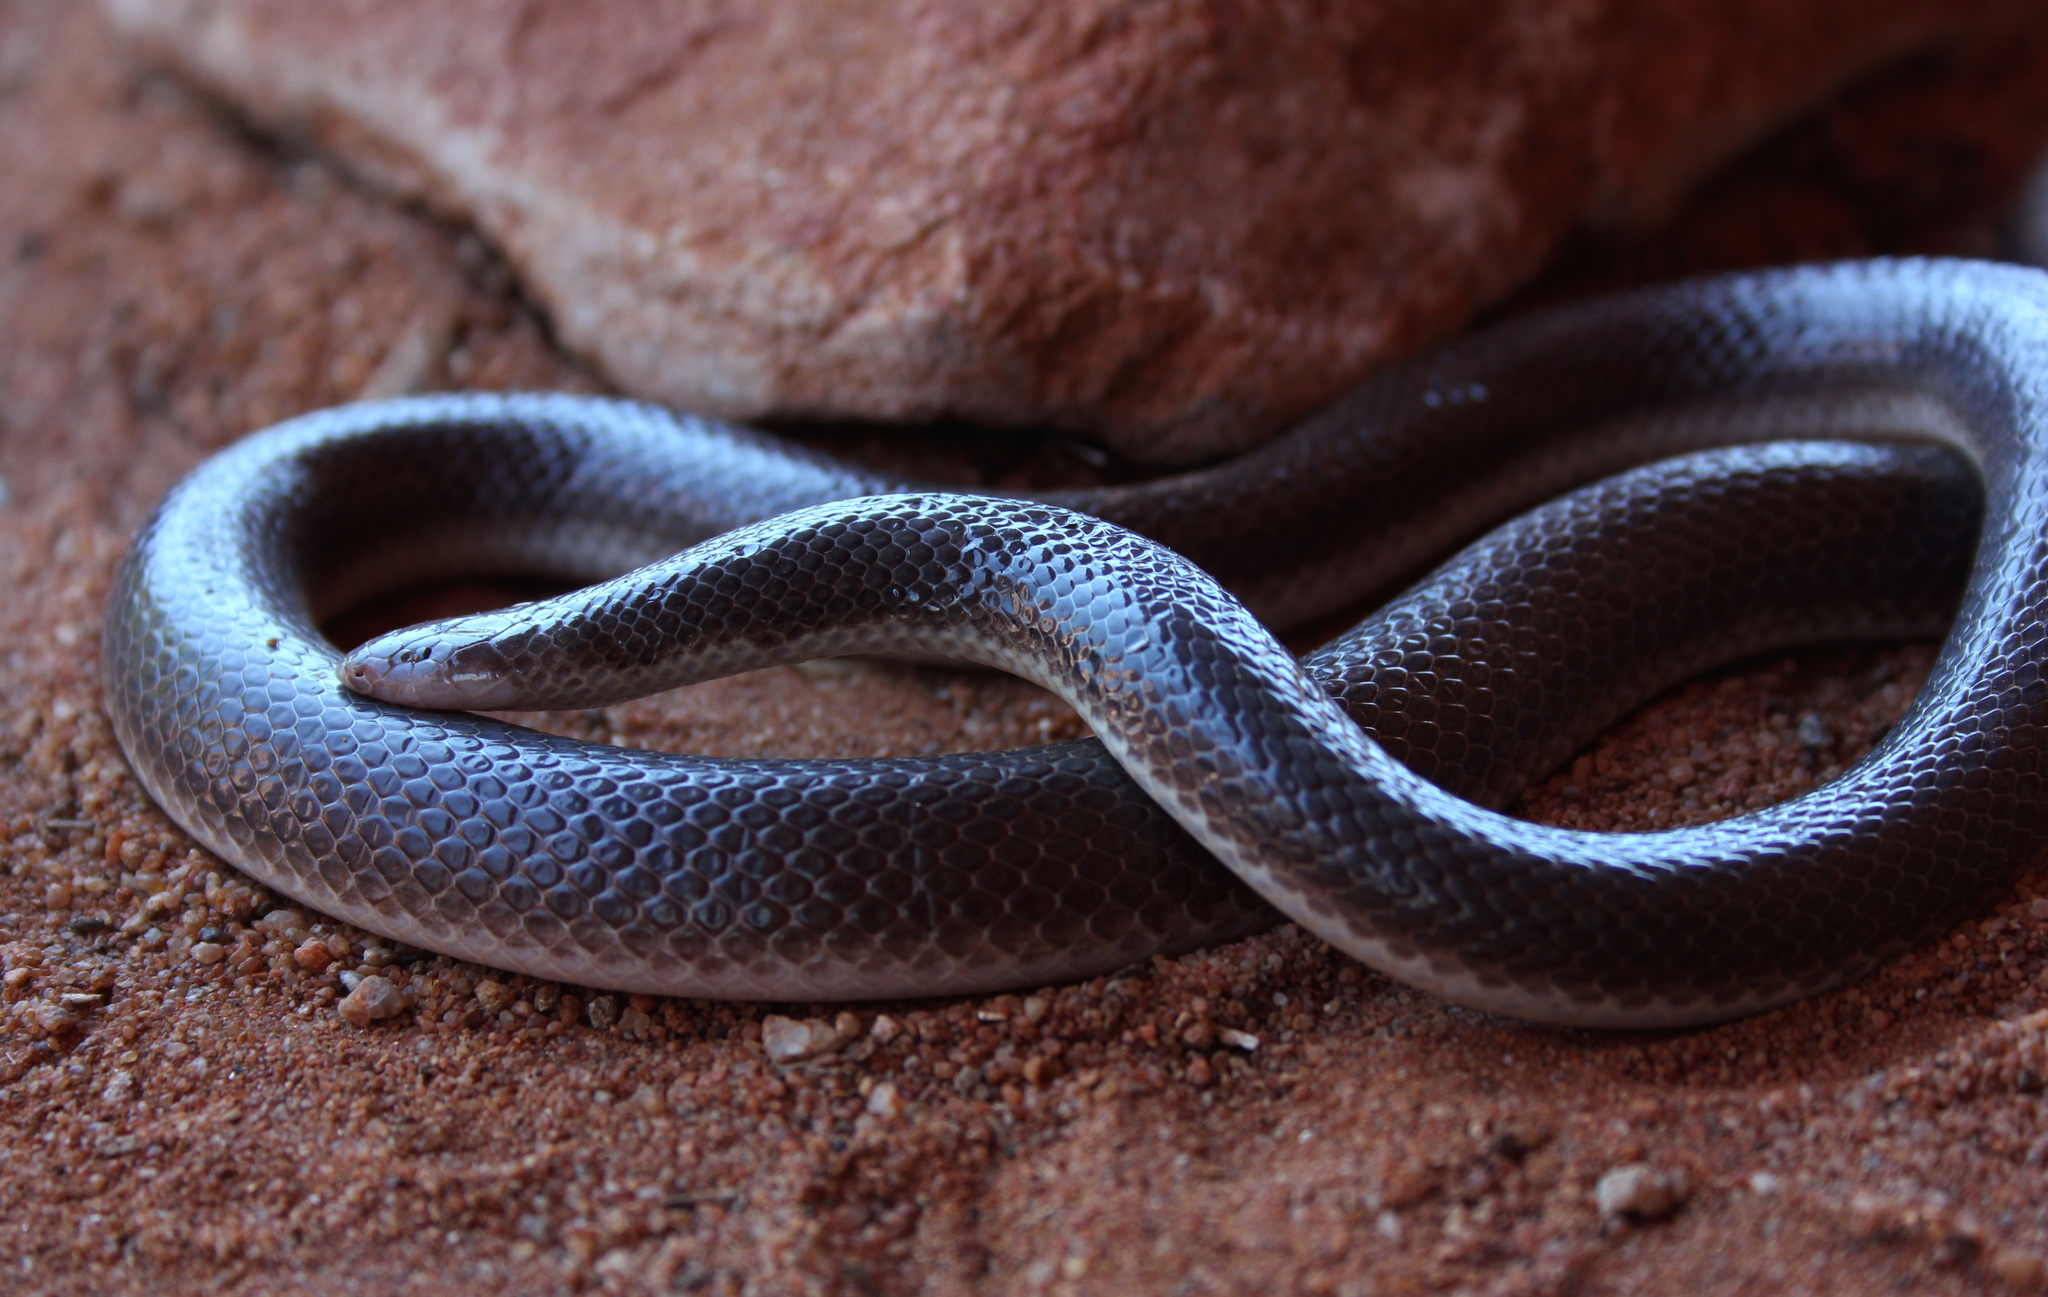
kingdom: Animalia
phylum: Chordata
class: Squamata
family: Atractaspididae
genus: Atractaspis
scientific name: Atractaspis bibronii
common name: Bibron's burrowing asp
